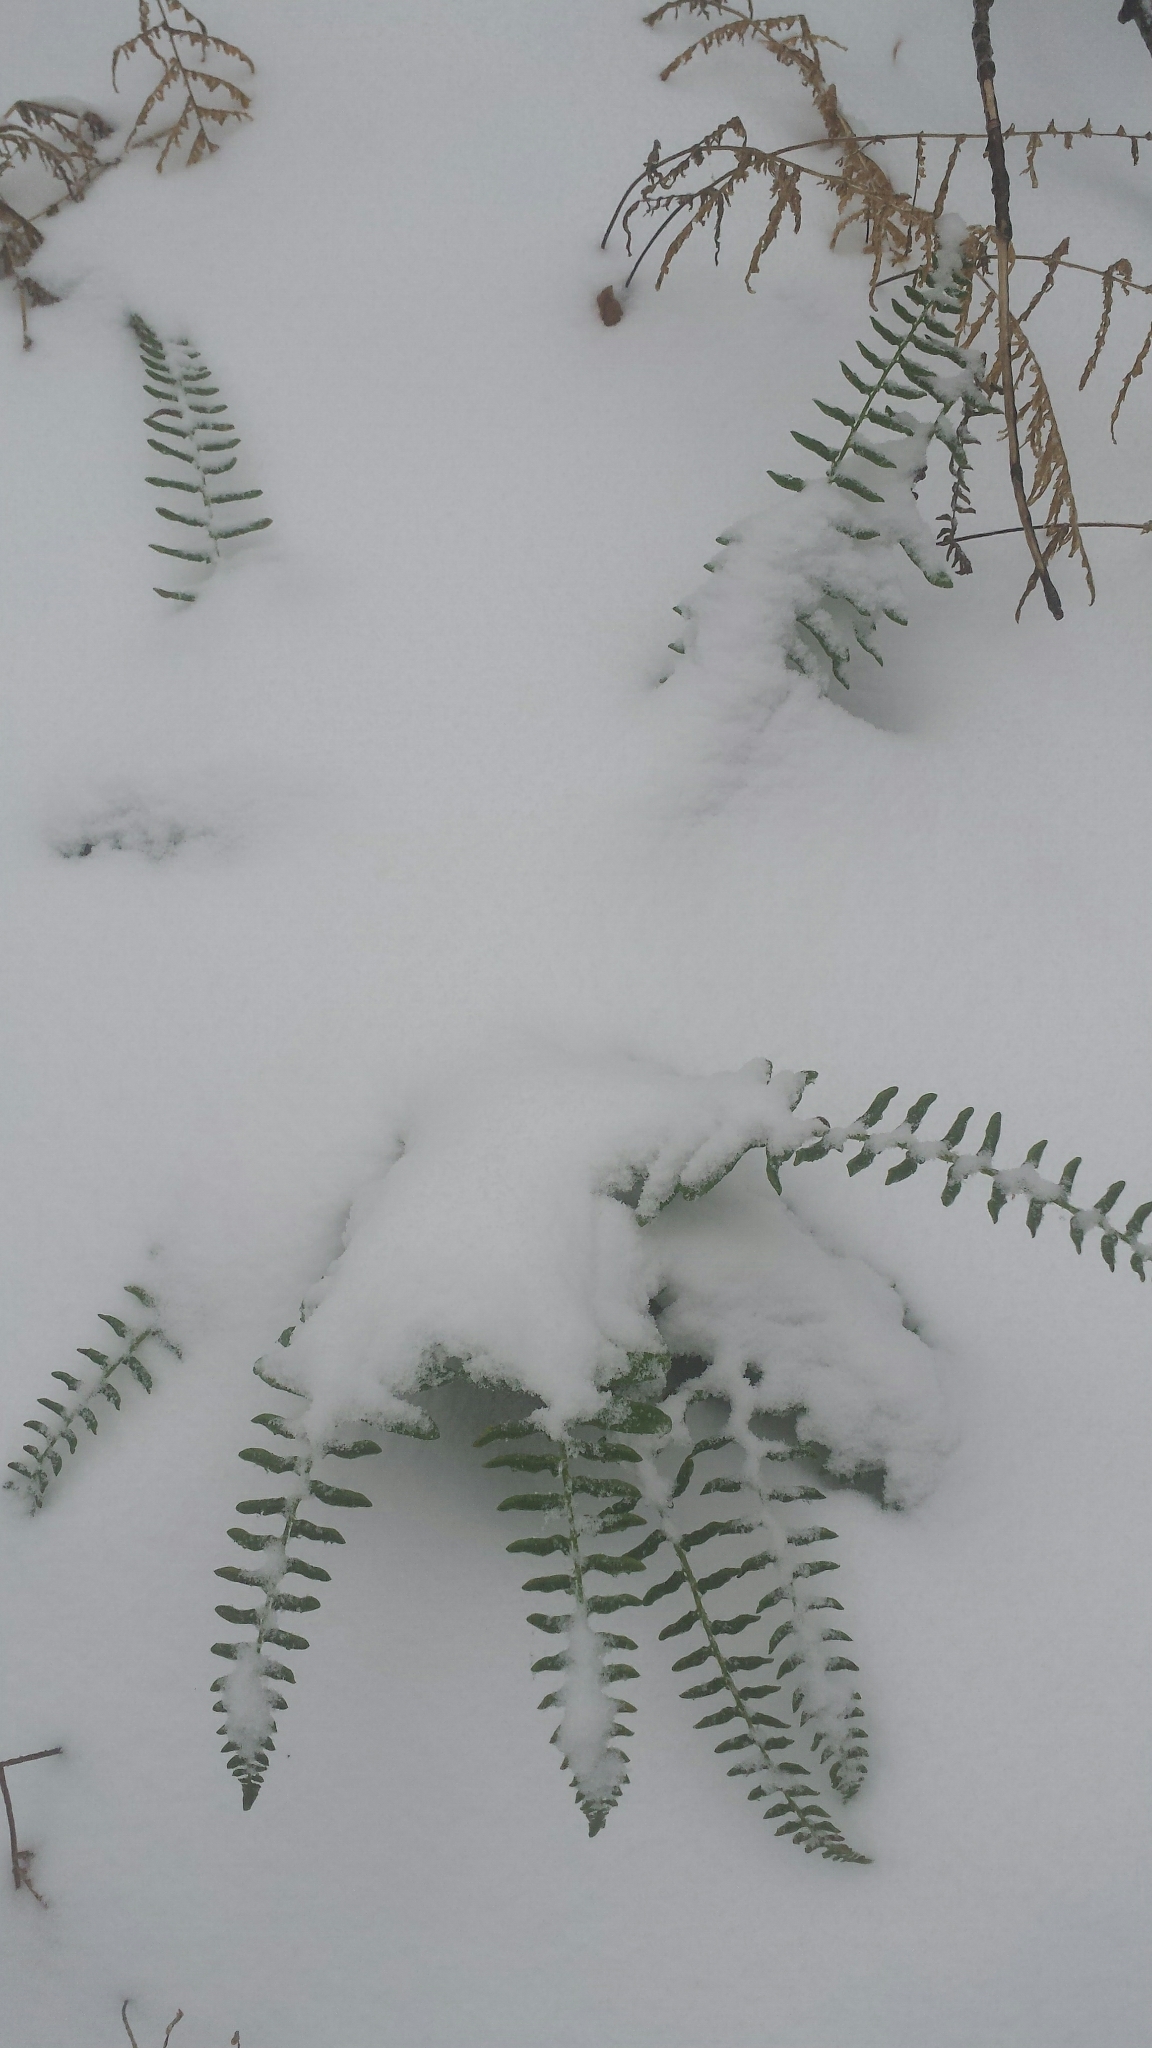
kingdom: Plantae
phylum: Tracheophyta
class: Polypodiopsida
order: Polypodiales
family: Dryopteridaceae
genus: Polystichum
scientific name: Polystichum acrostichoides
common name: Christmas fern
